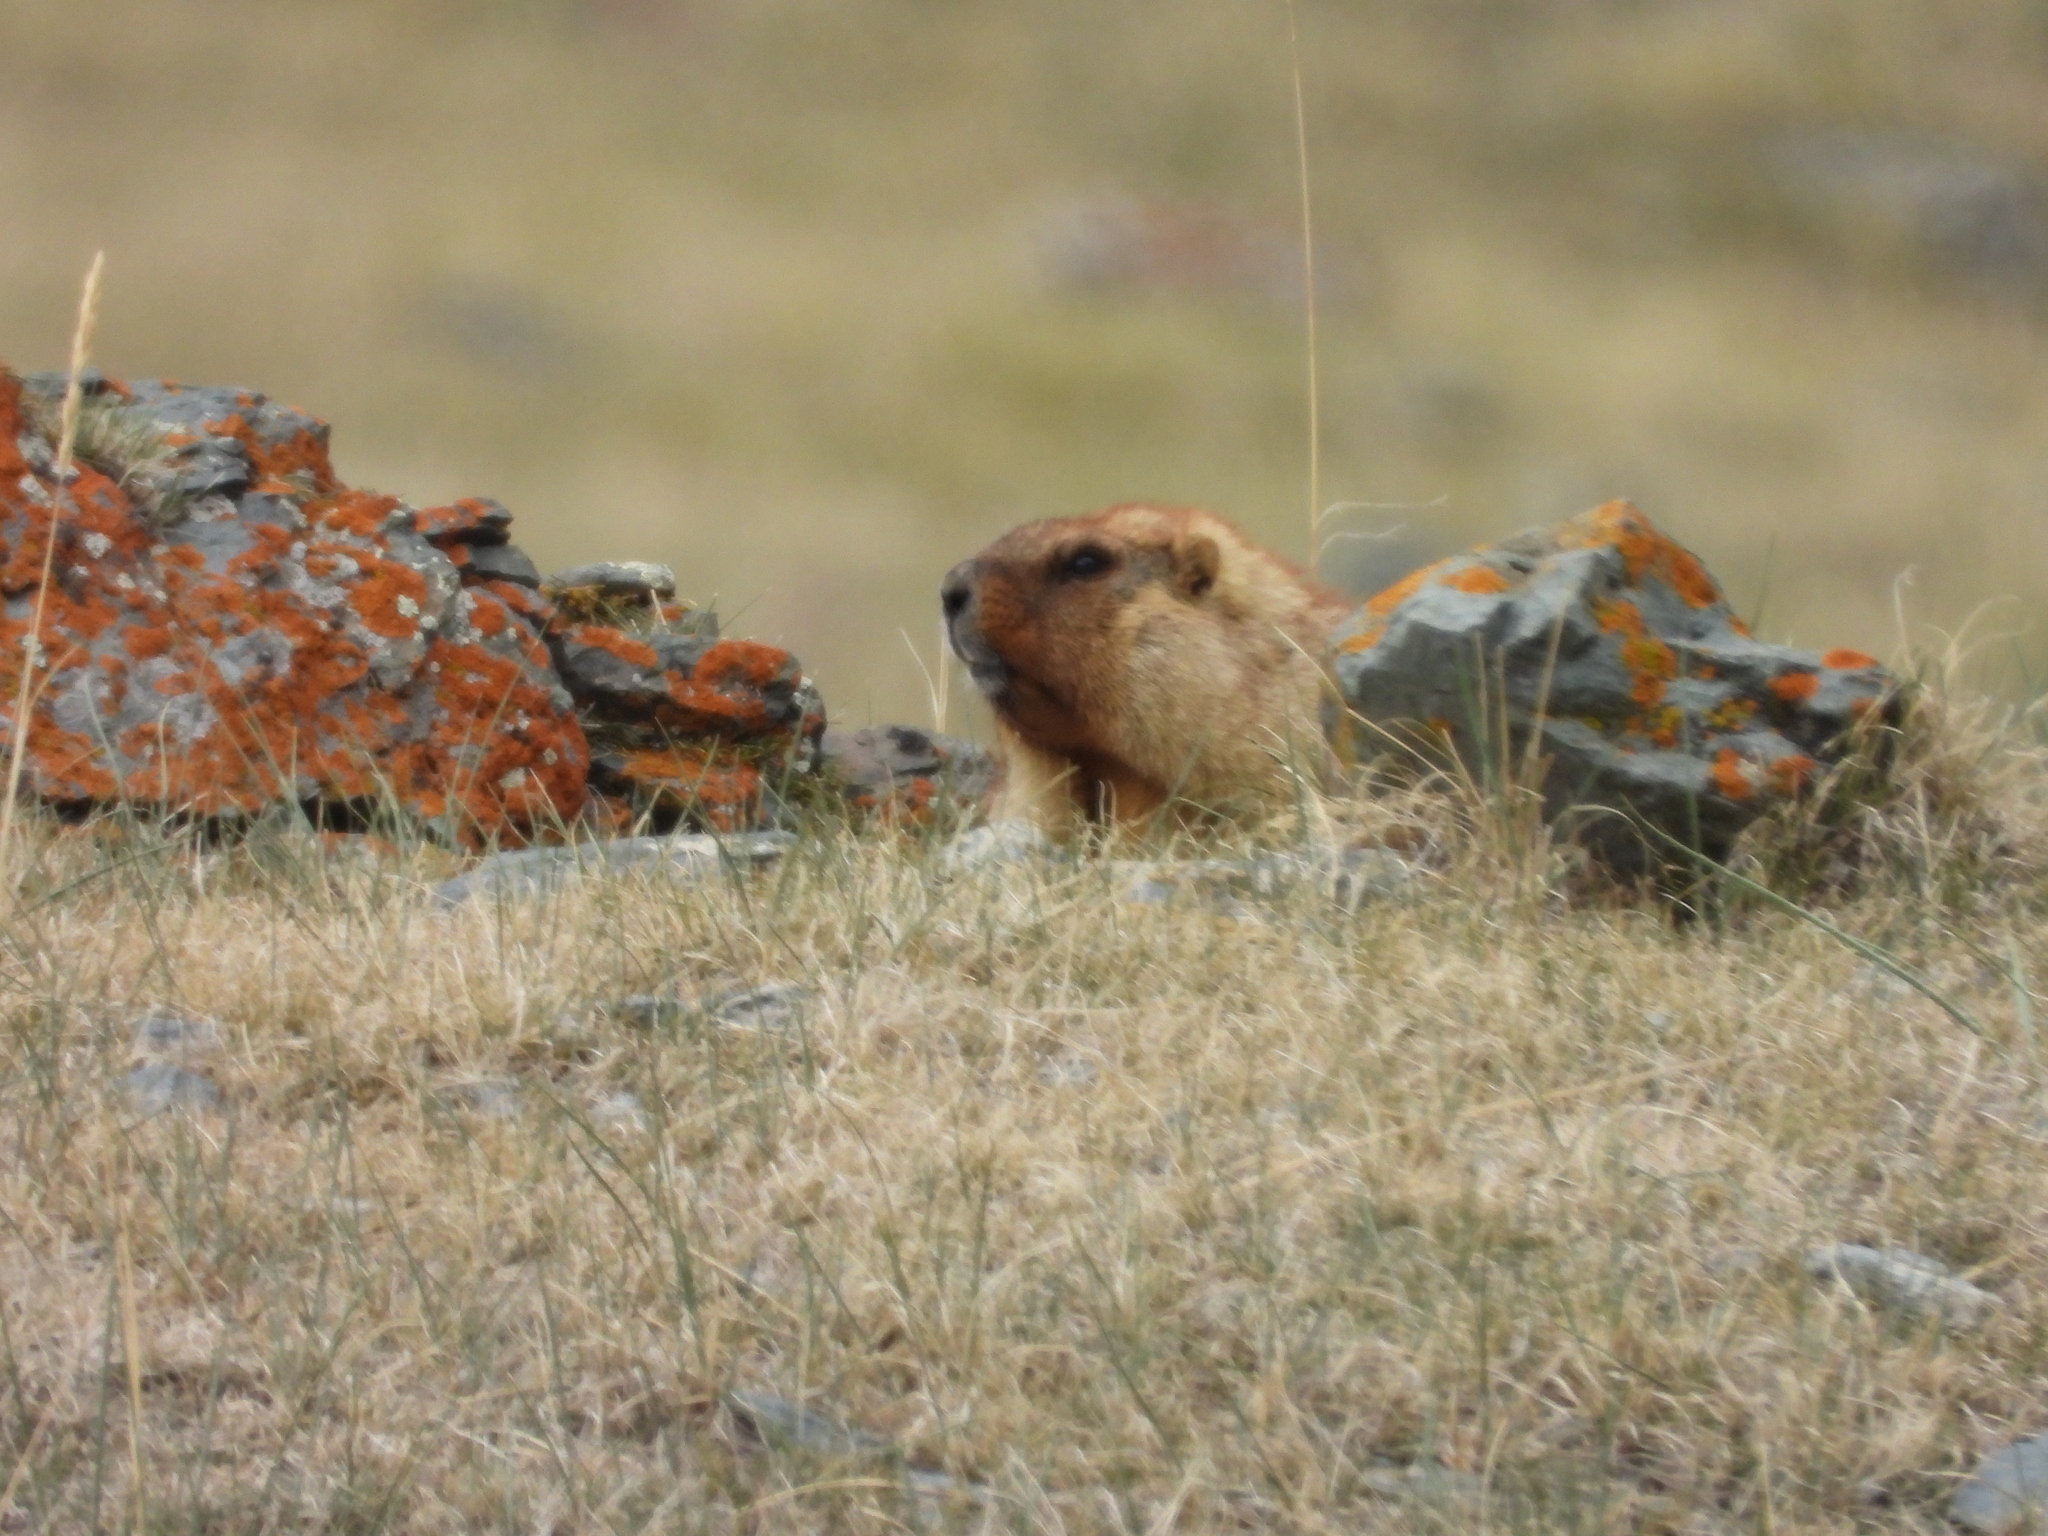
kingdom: Animalia
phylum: Chordata
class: Mammalia
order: Rodentia
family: Sciuridae
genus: Marmota
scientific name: Marmota baibacina
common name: Gray marmot
